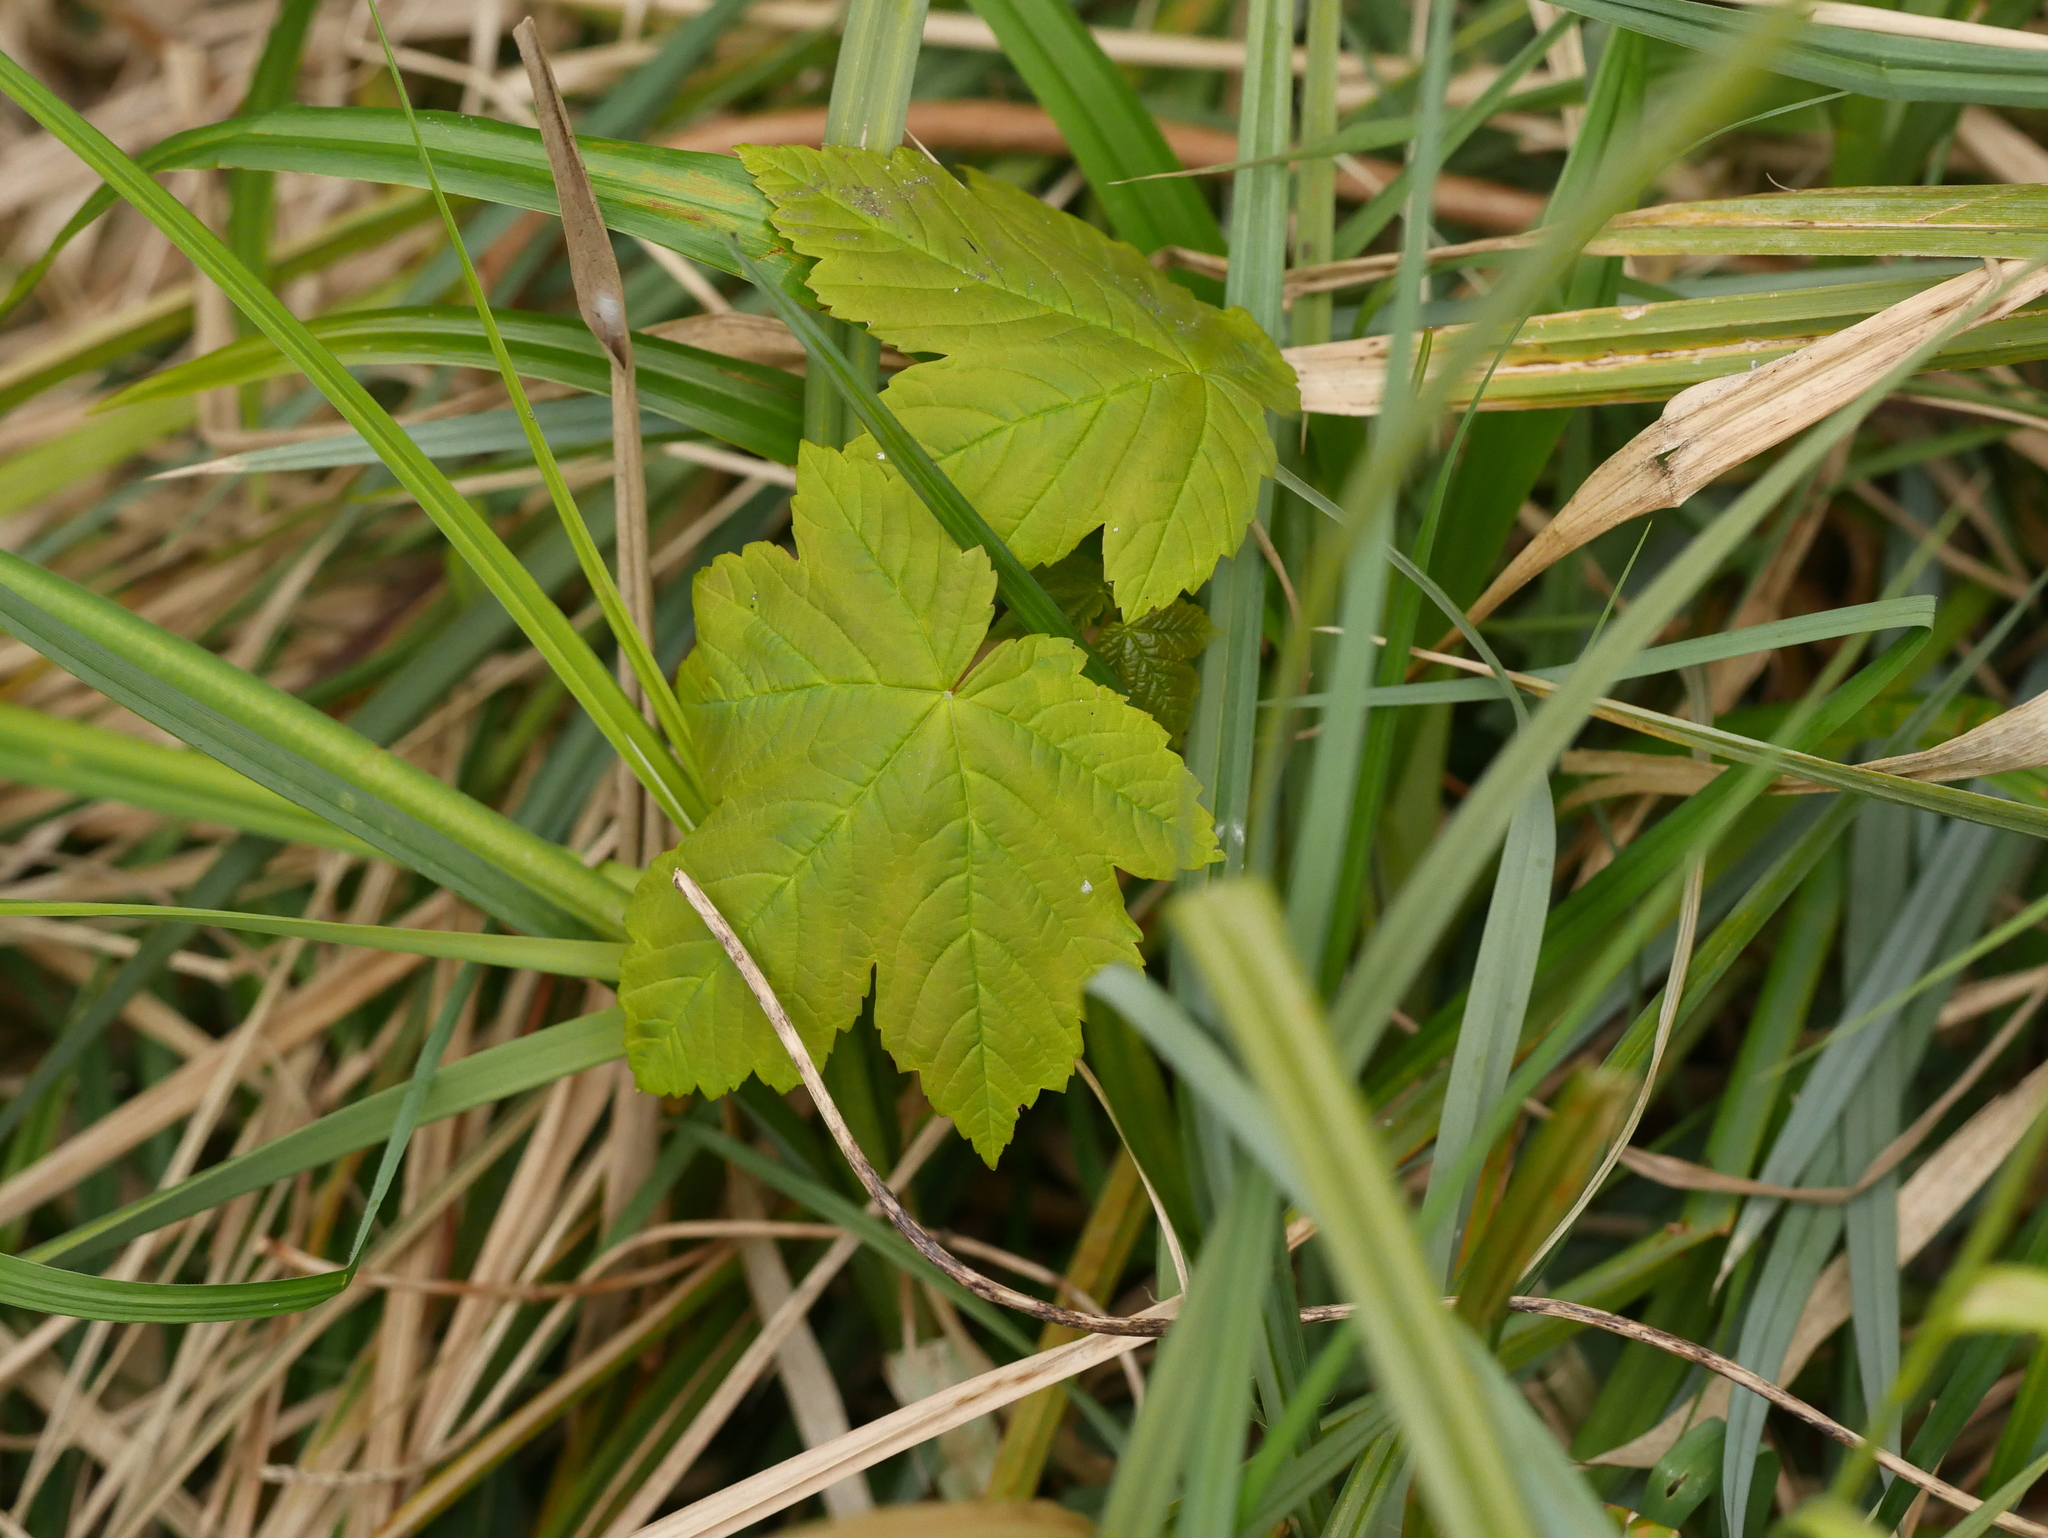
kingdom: Plantae
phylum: Tracheophyta
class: Magnoliopsida
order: Sapindales
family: Sapindaceae
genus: Acer
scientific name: Acer pseudoplatanus
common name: Sycamore
